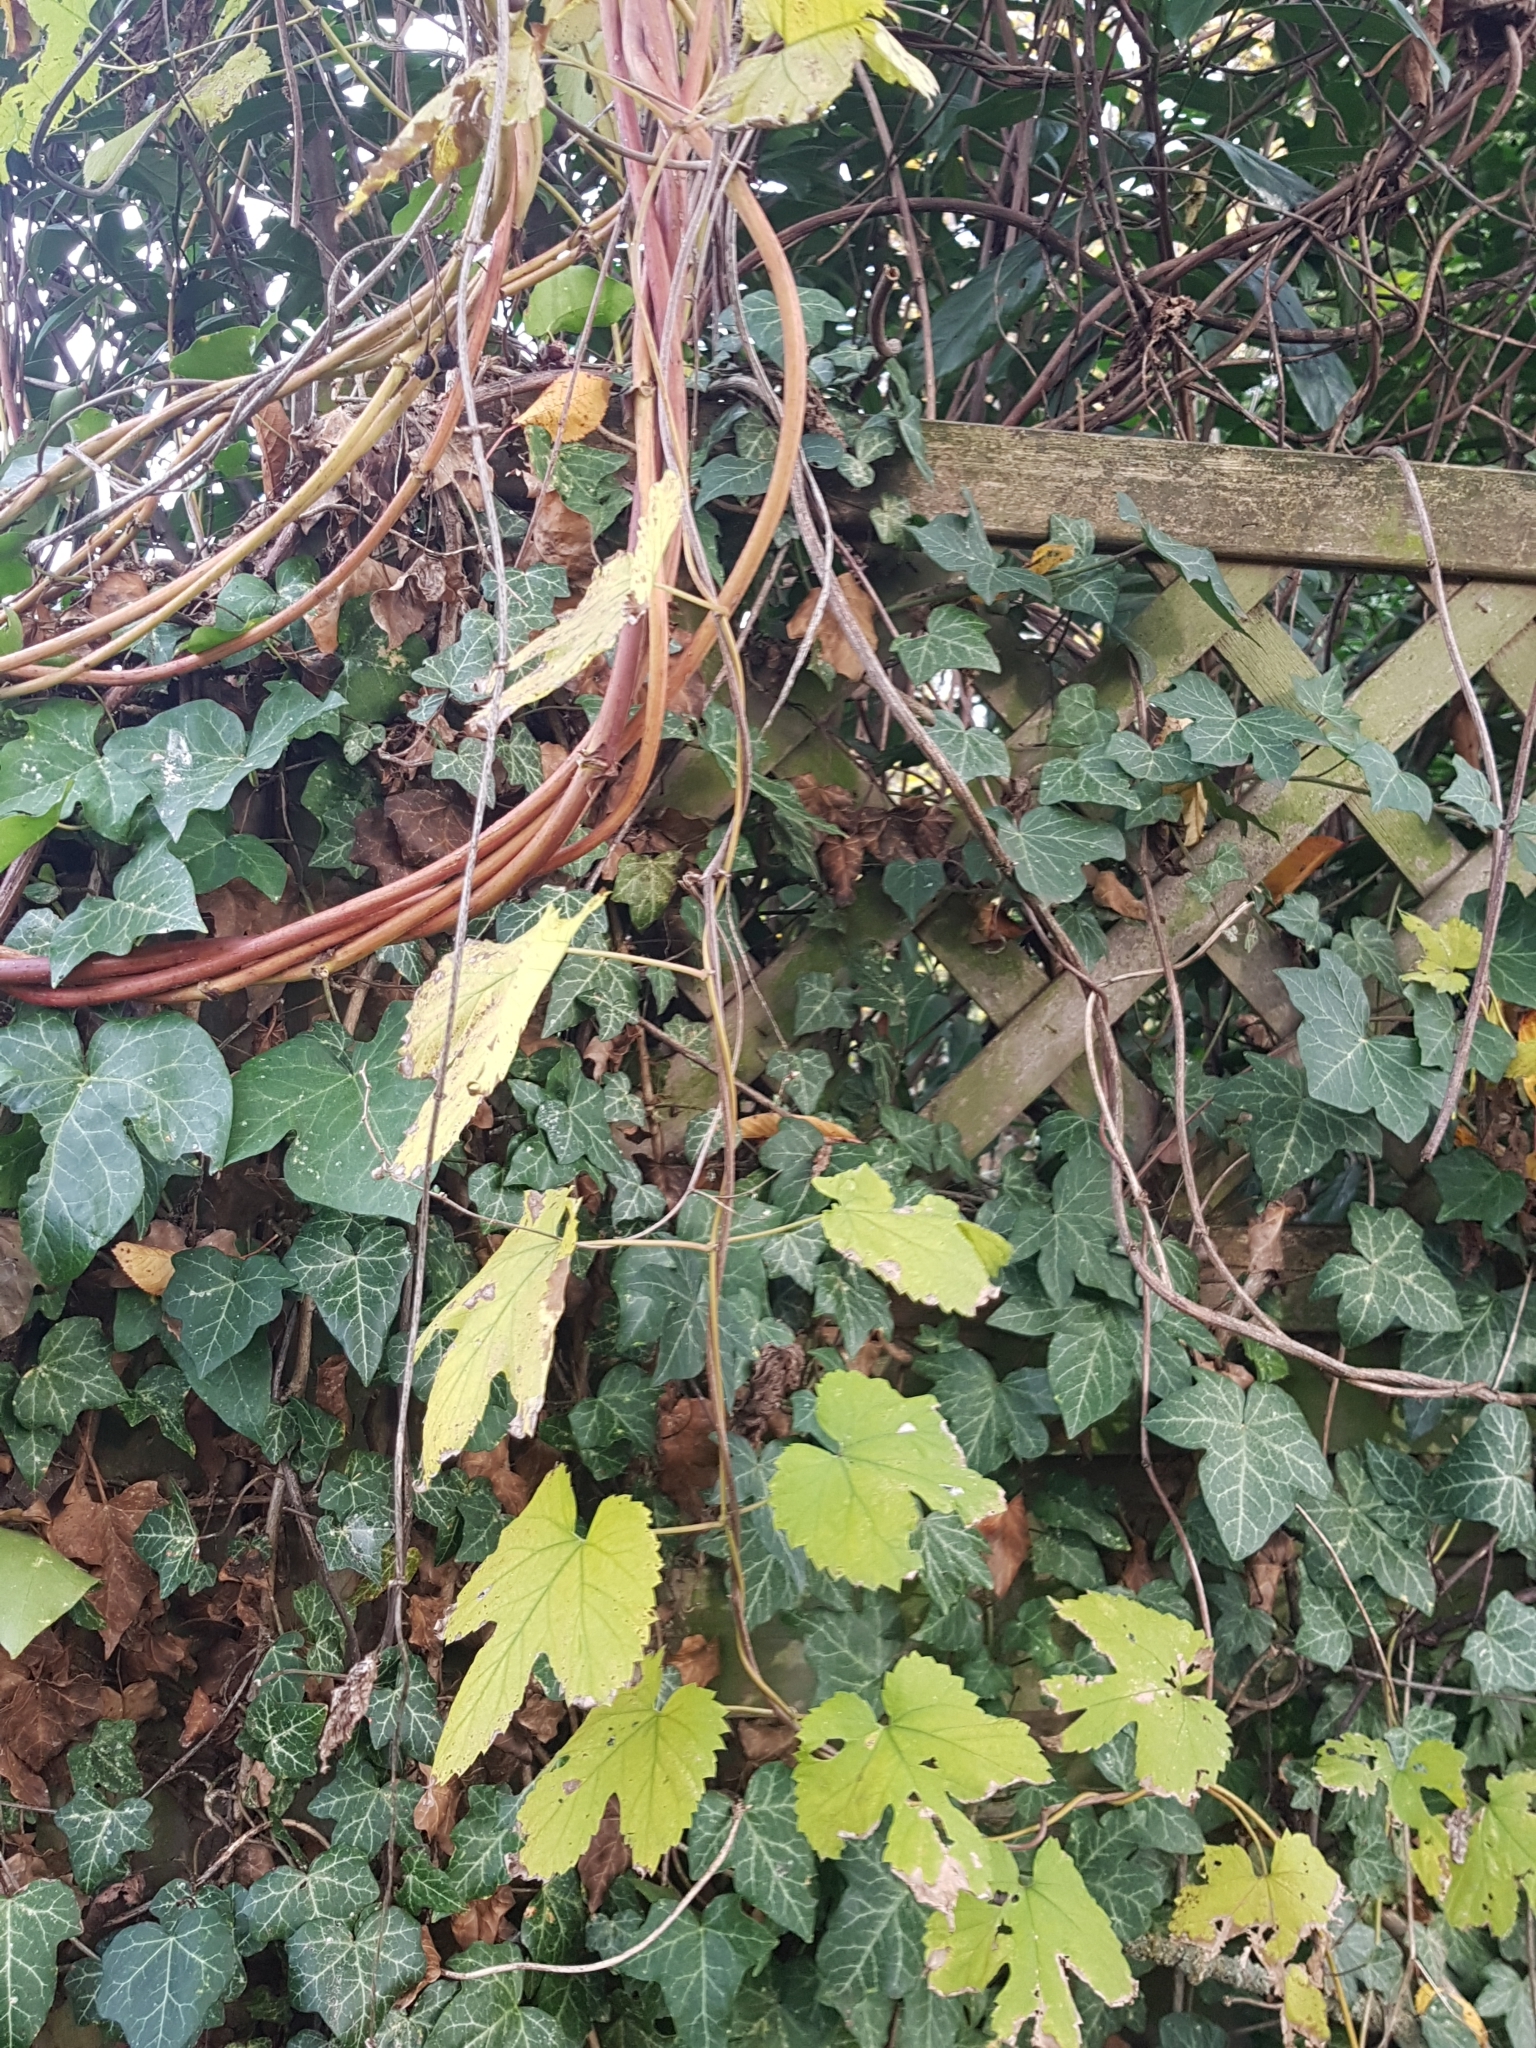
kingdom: Plantae
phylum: Tracheophyta
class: Magnoliopsida
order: Rosales
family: Cannabaceae
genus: Humulus
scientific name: Humulus lupulus
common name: Hop
